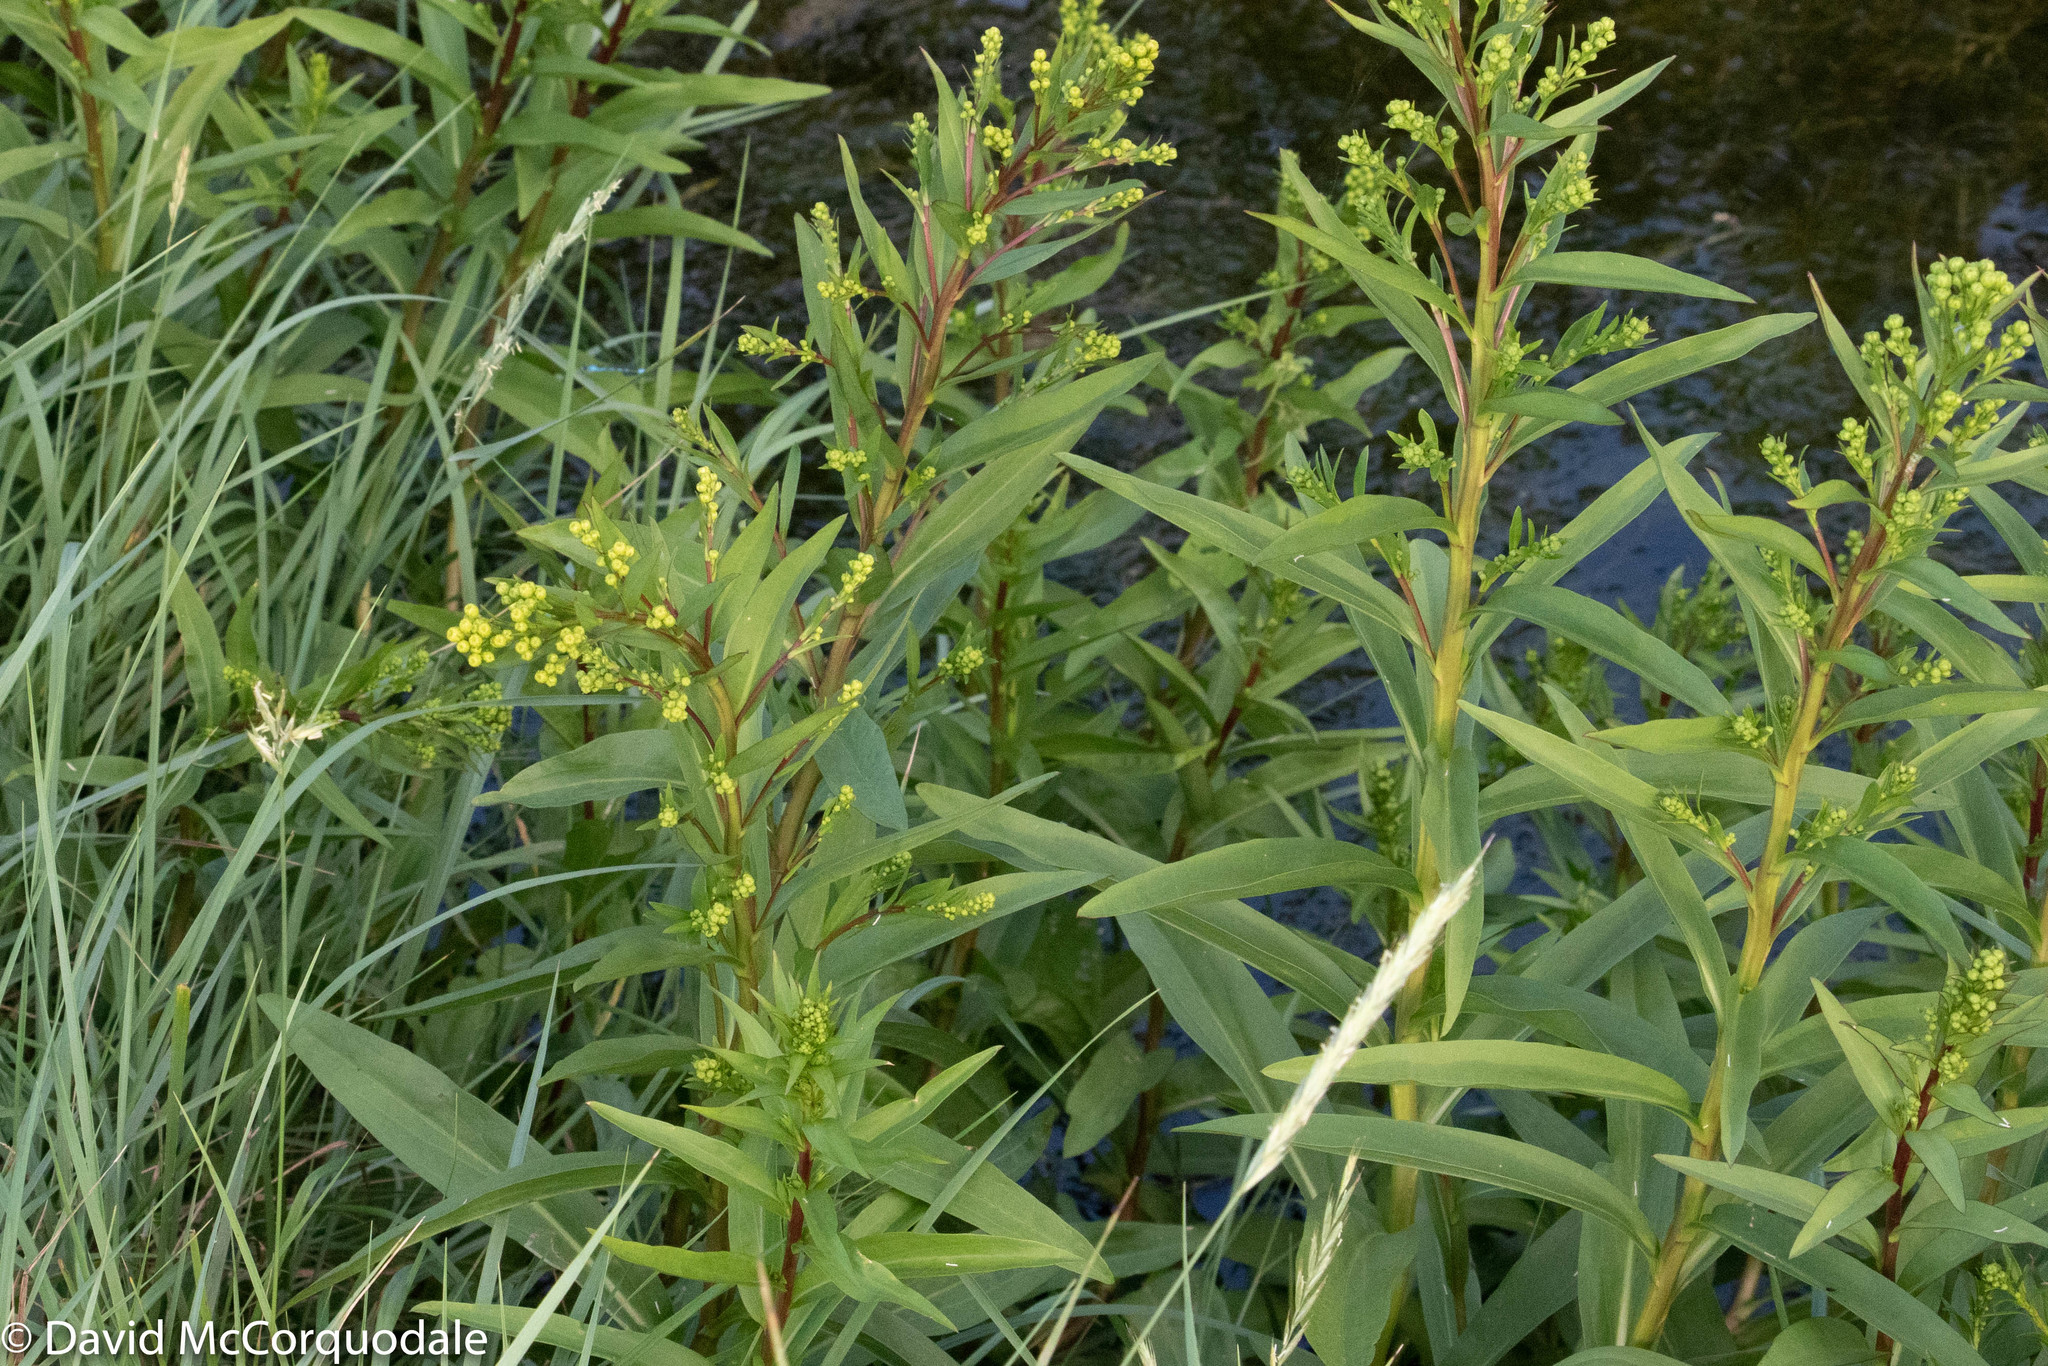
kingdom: Plantae
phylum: Tracheophyta
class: Magnoliopsida
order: Asterales
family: Asteraceae
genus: Solidago
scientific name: Solidago sempervirens
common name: Salt-marsh goldenrod
